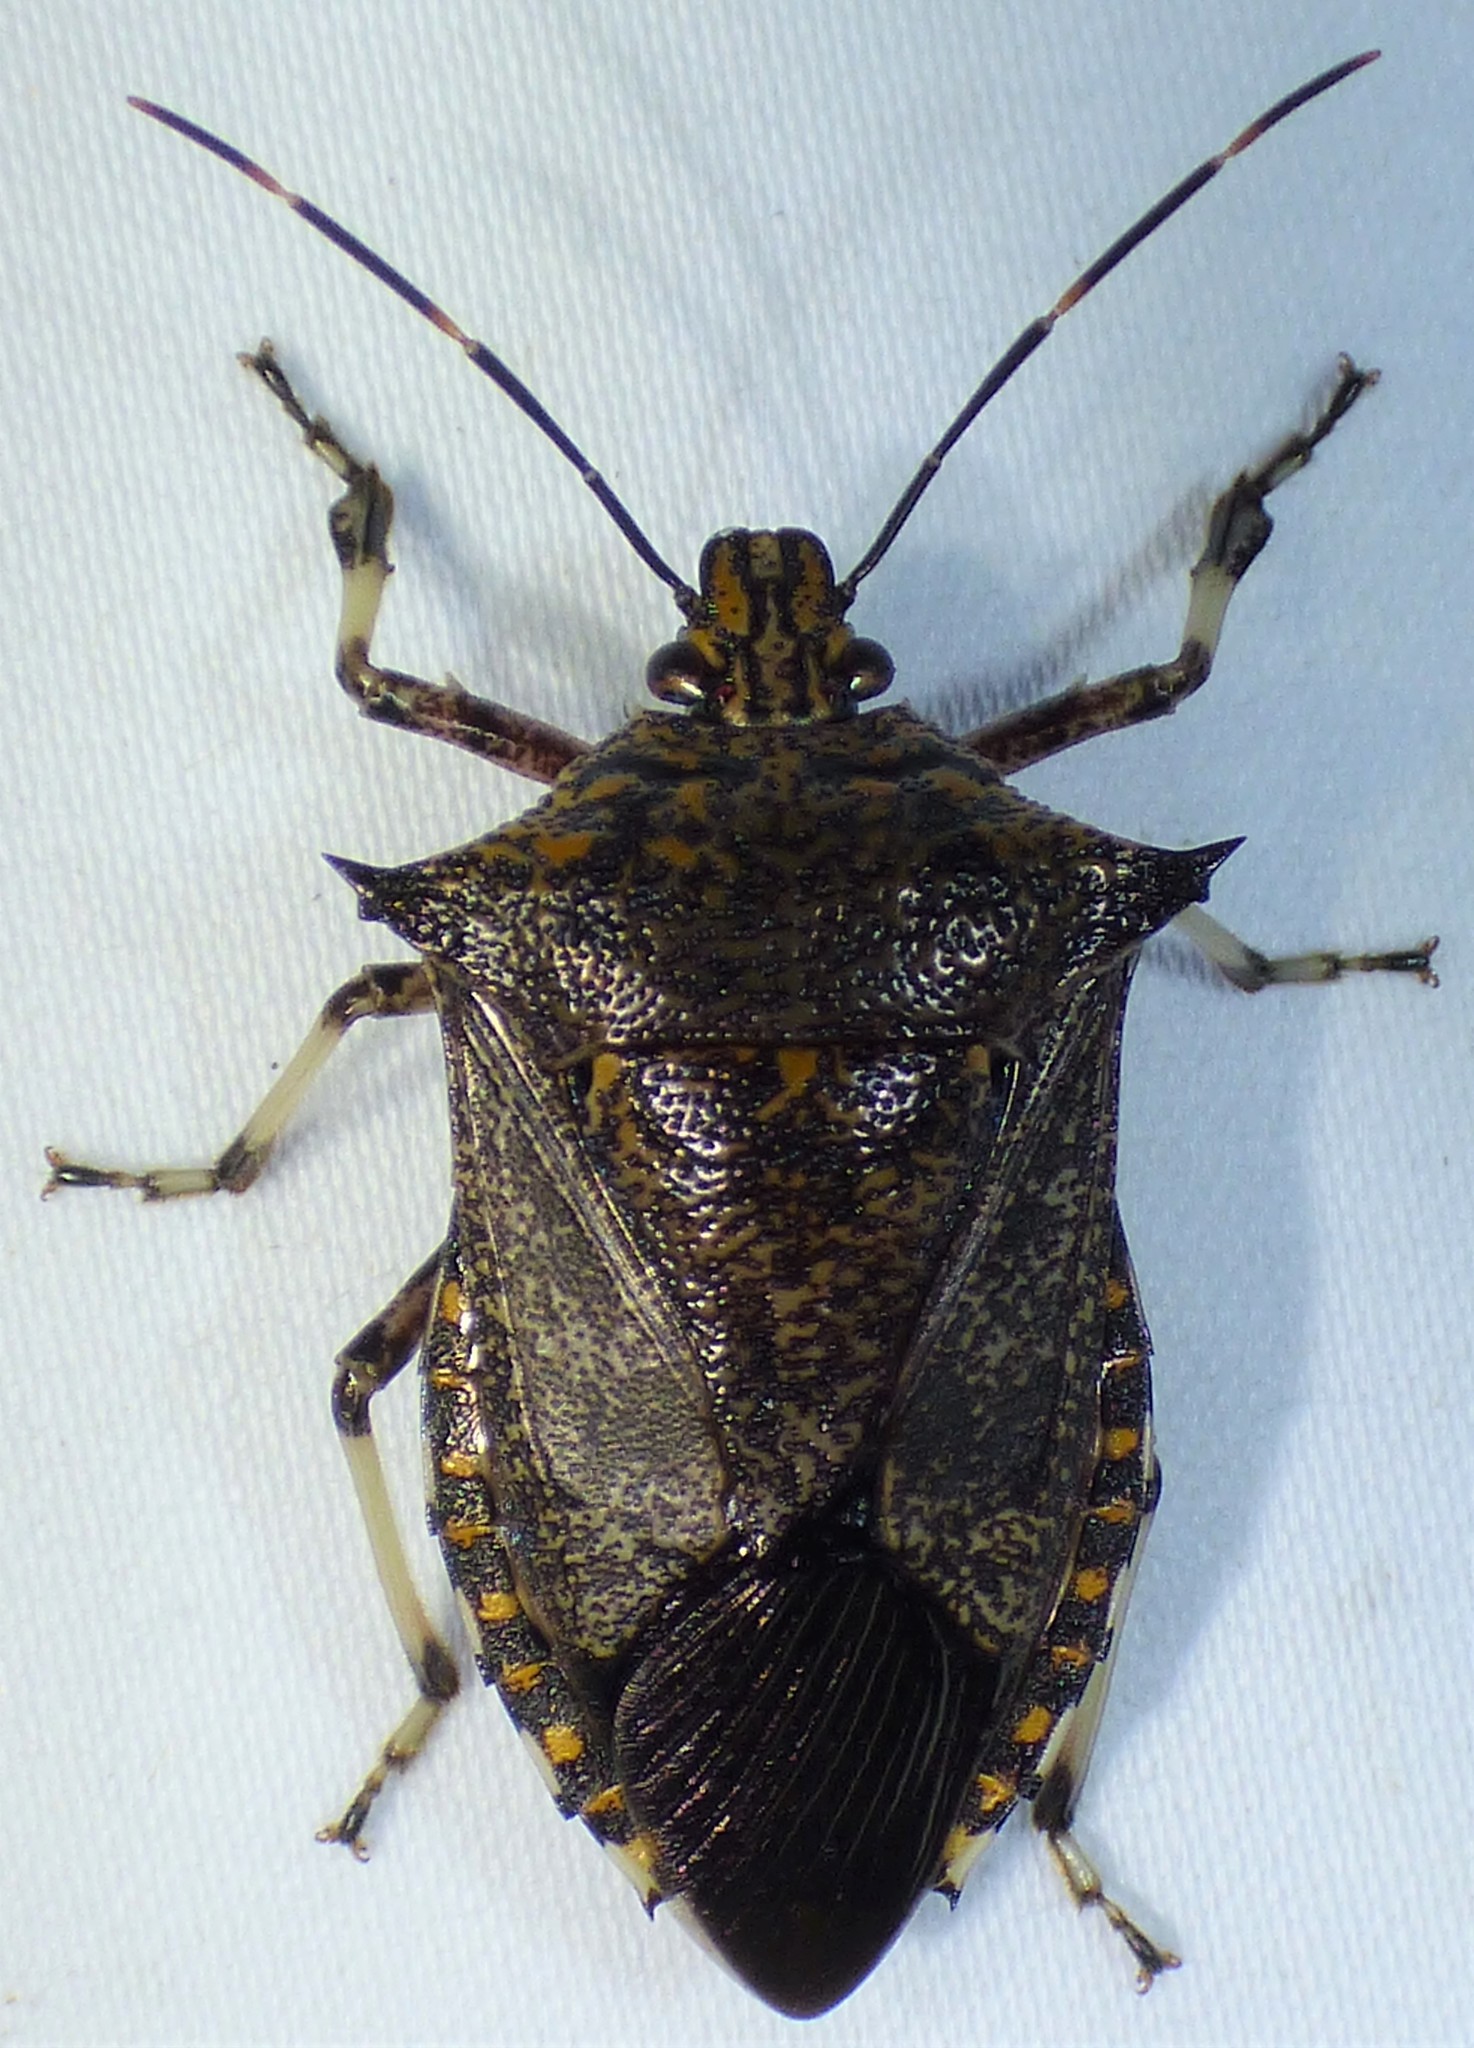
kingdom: Animalia
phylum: Arthropoda
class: Insecta
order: Hemiptera
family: Pentatomidae
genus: Alcaeorrhynchus
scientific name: Alcaeorrhynchus grandis
